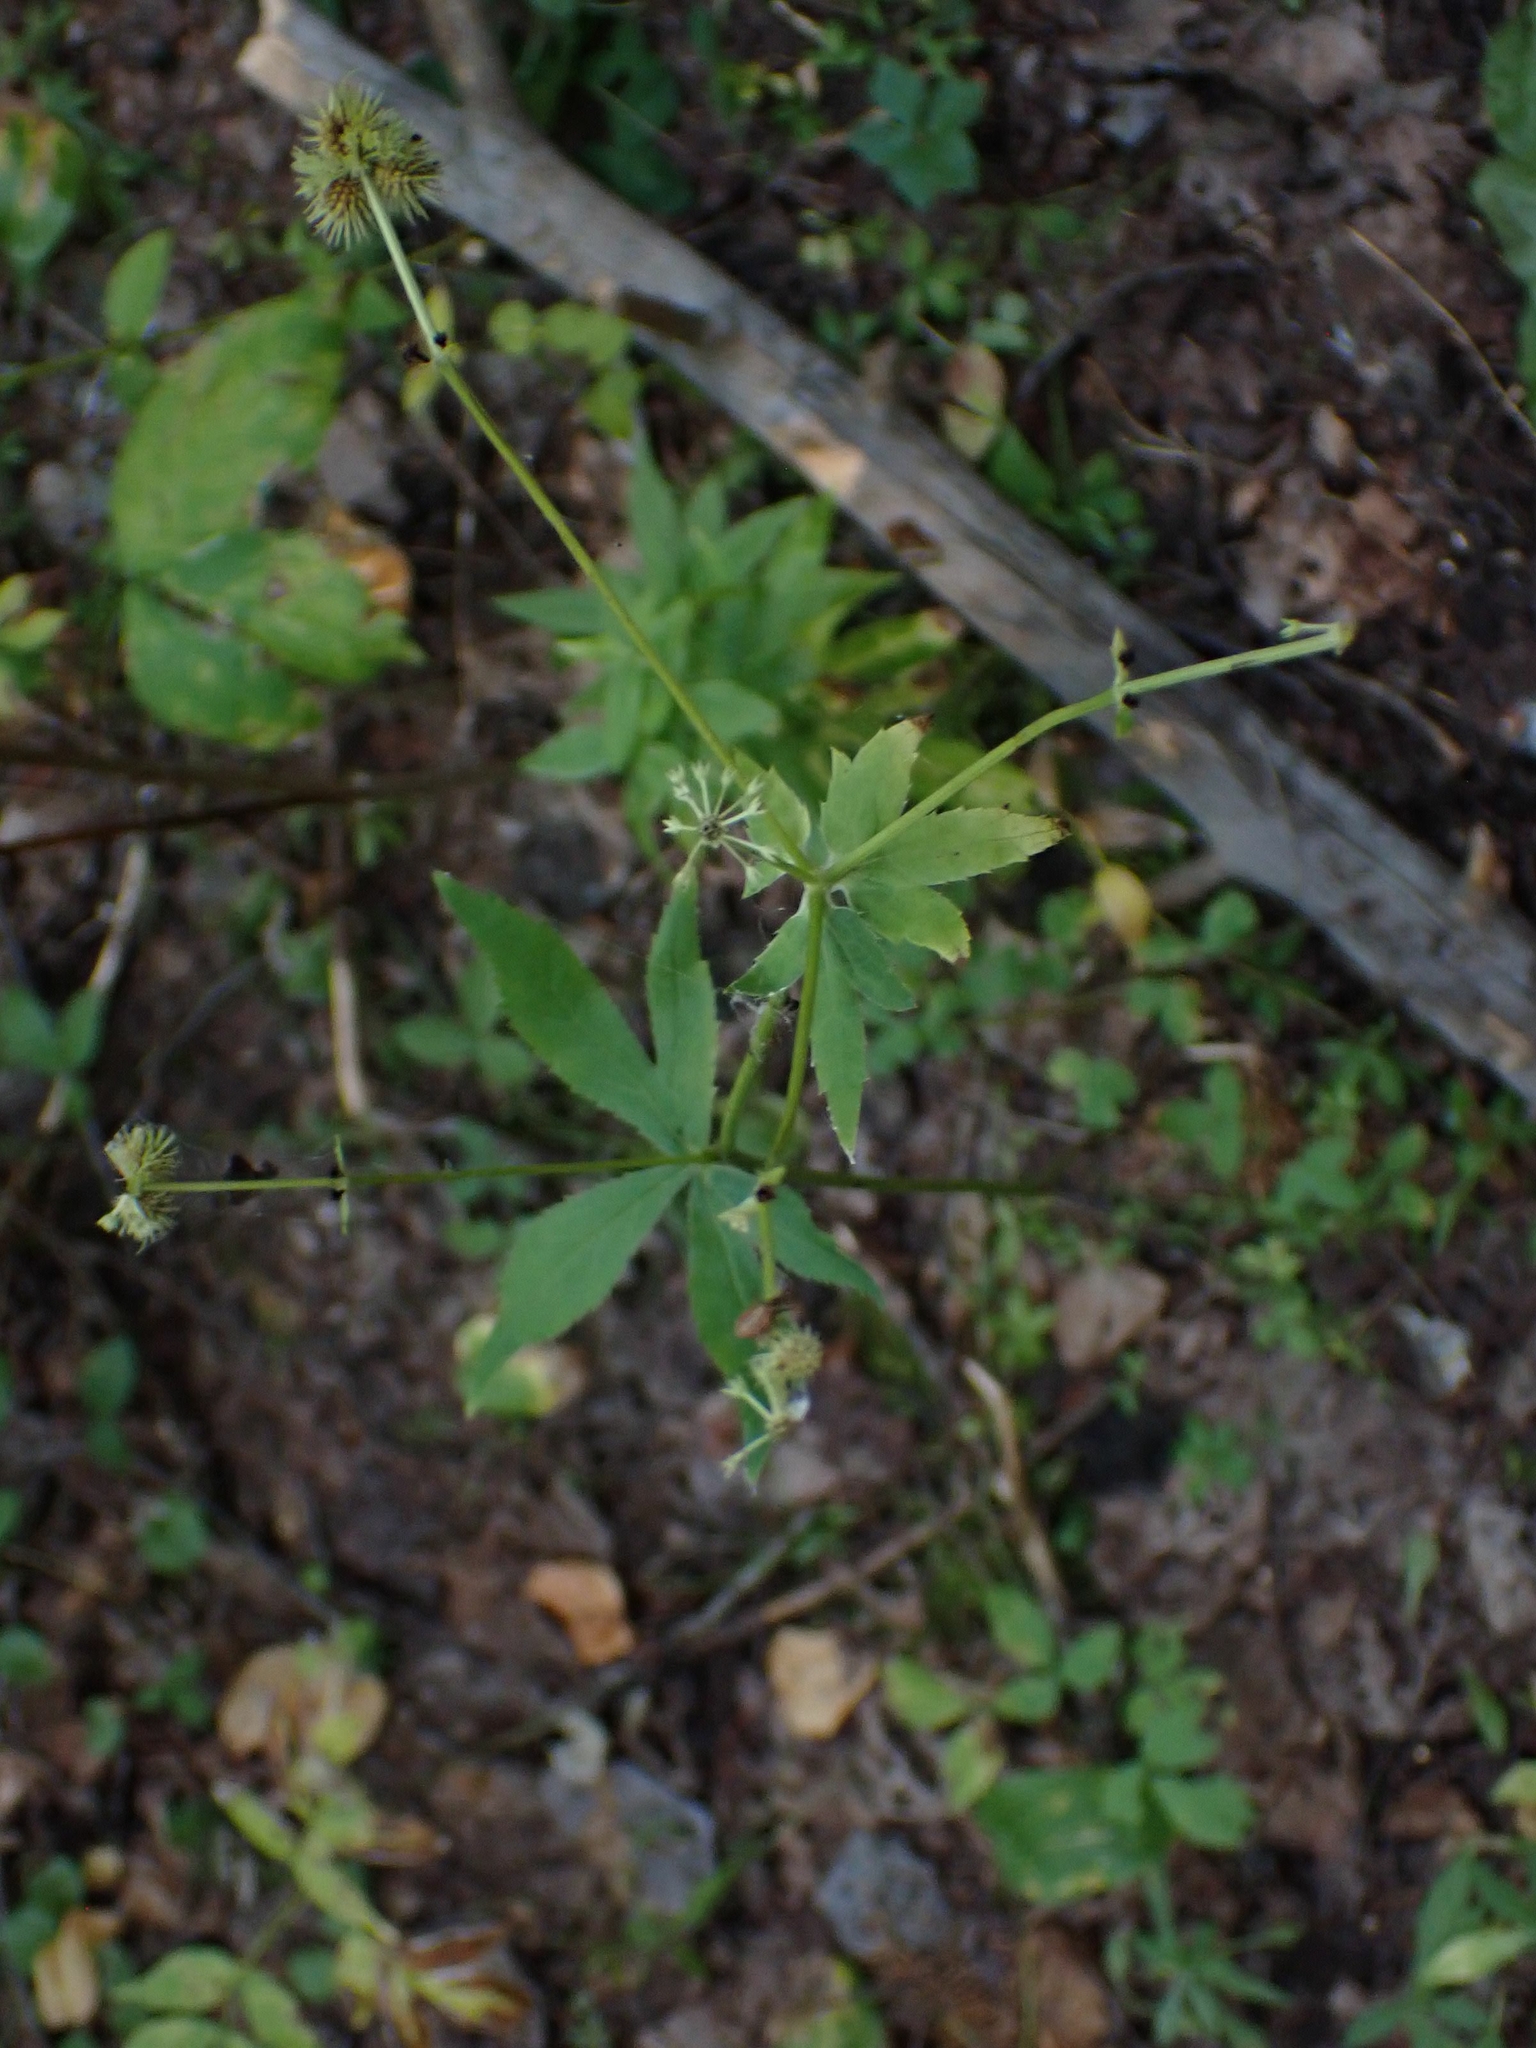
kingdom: Plantae
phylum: Tracheophyta
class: Magnoliopsida
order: Apiales
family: Apiaceae
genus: Sanicula
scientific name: Sanicula marilandica
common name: Black snakeroot
